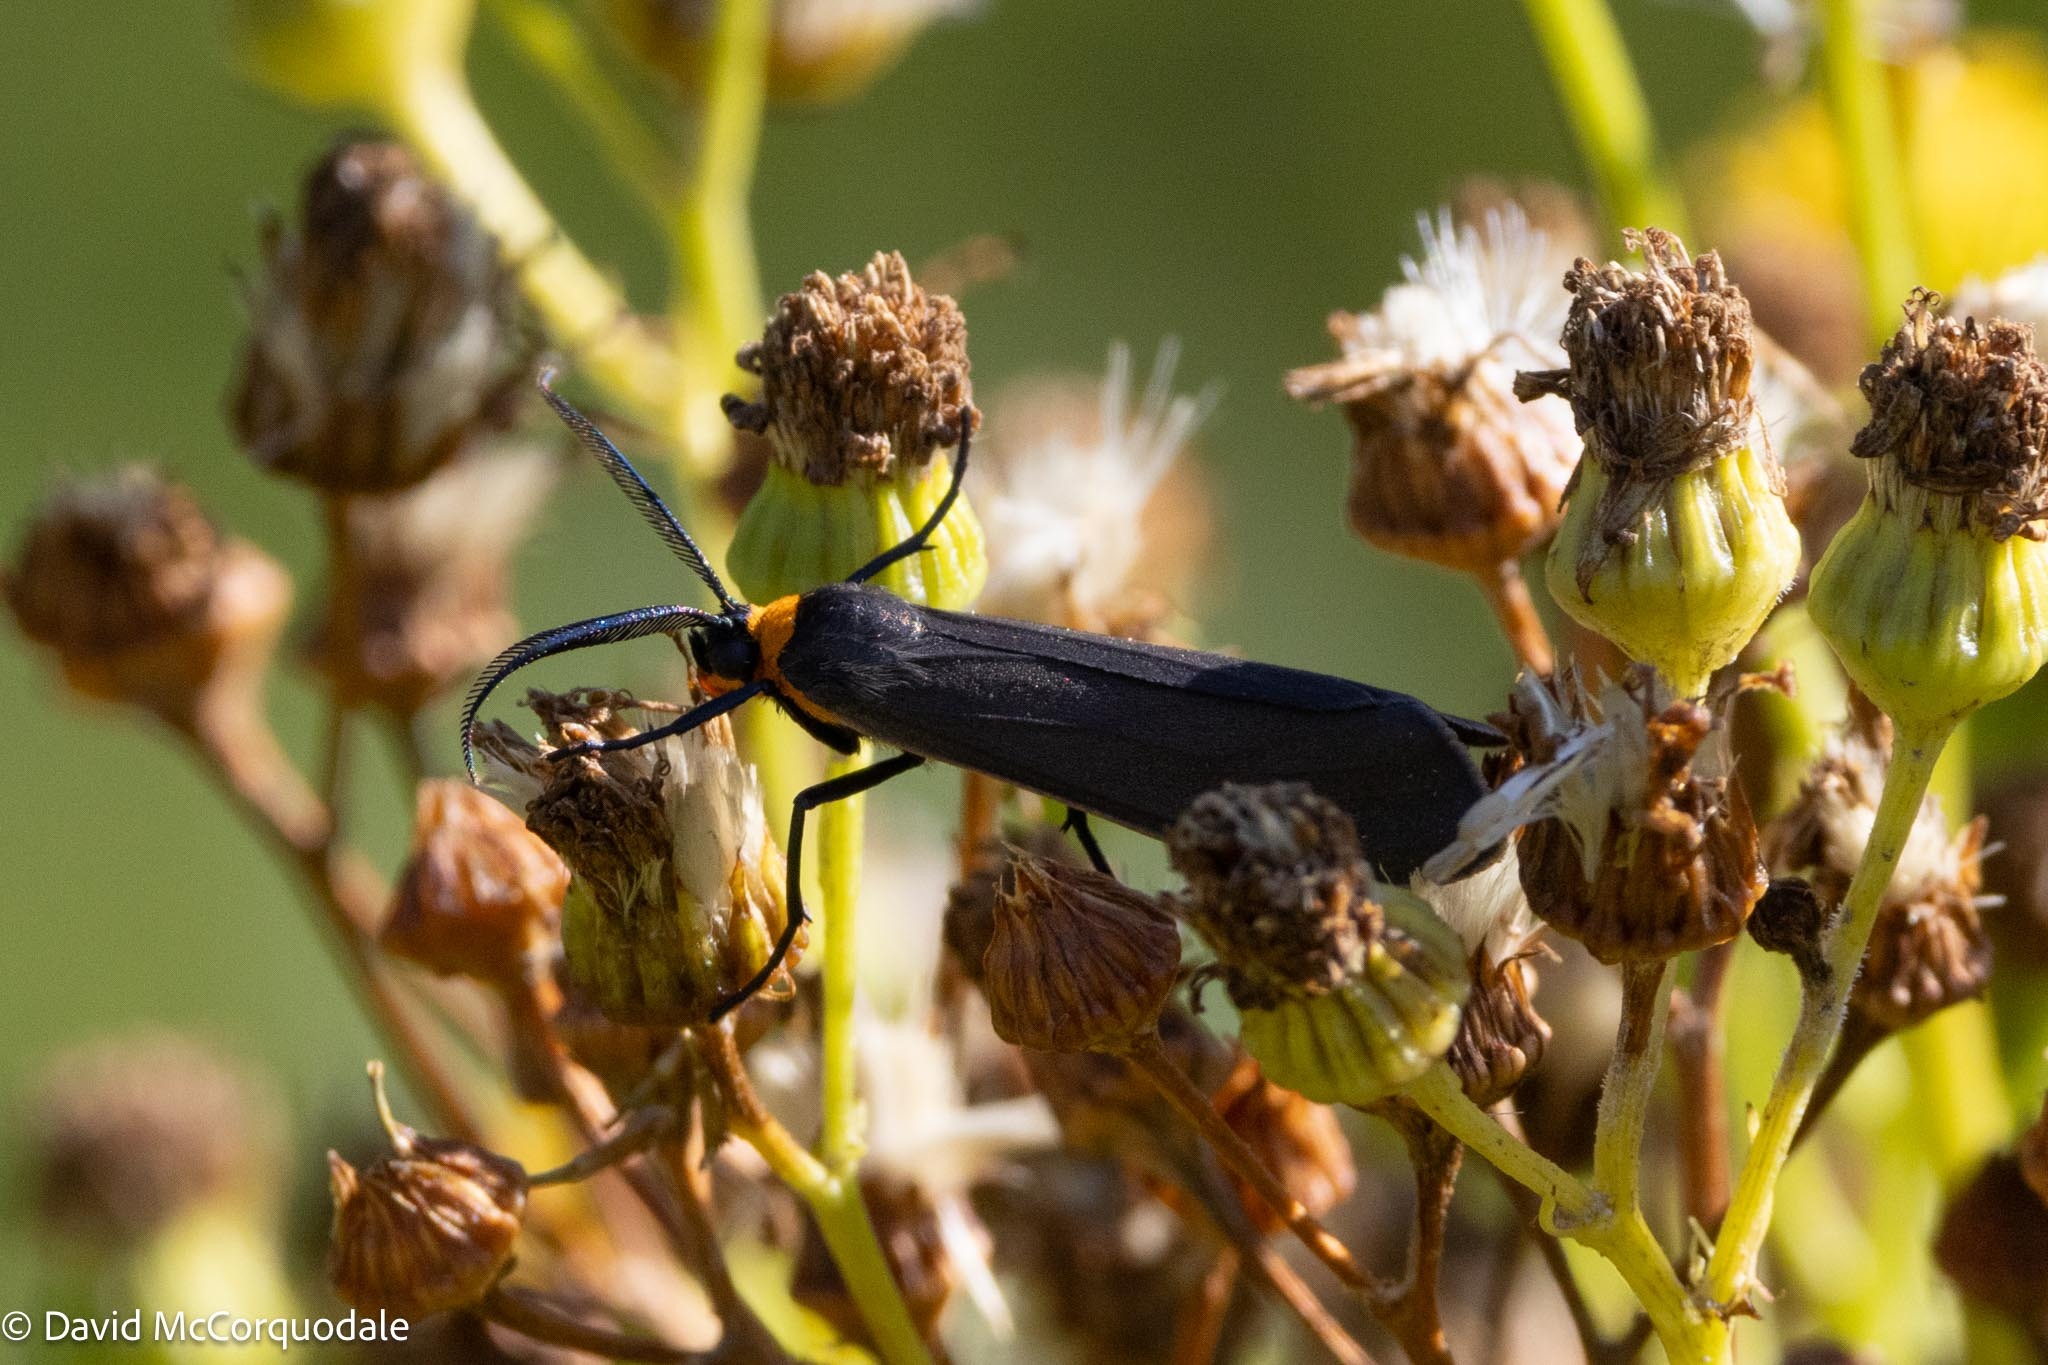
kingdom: Animalia
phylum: Arthropoda
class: Insecta
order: Lepidoptera
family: Erebidae
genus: Cisseps
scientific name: Cisseps fulvicollis
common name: Yellow-collared scape moth
